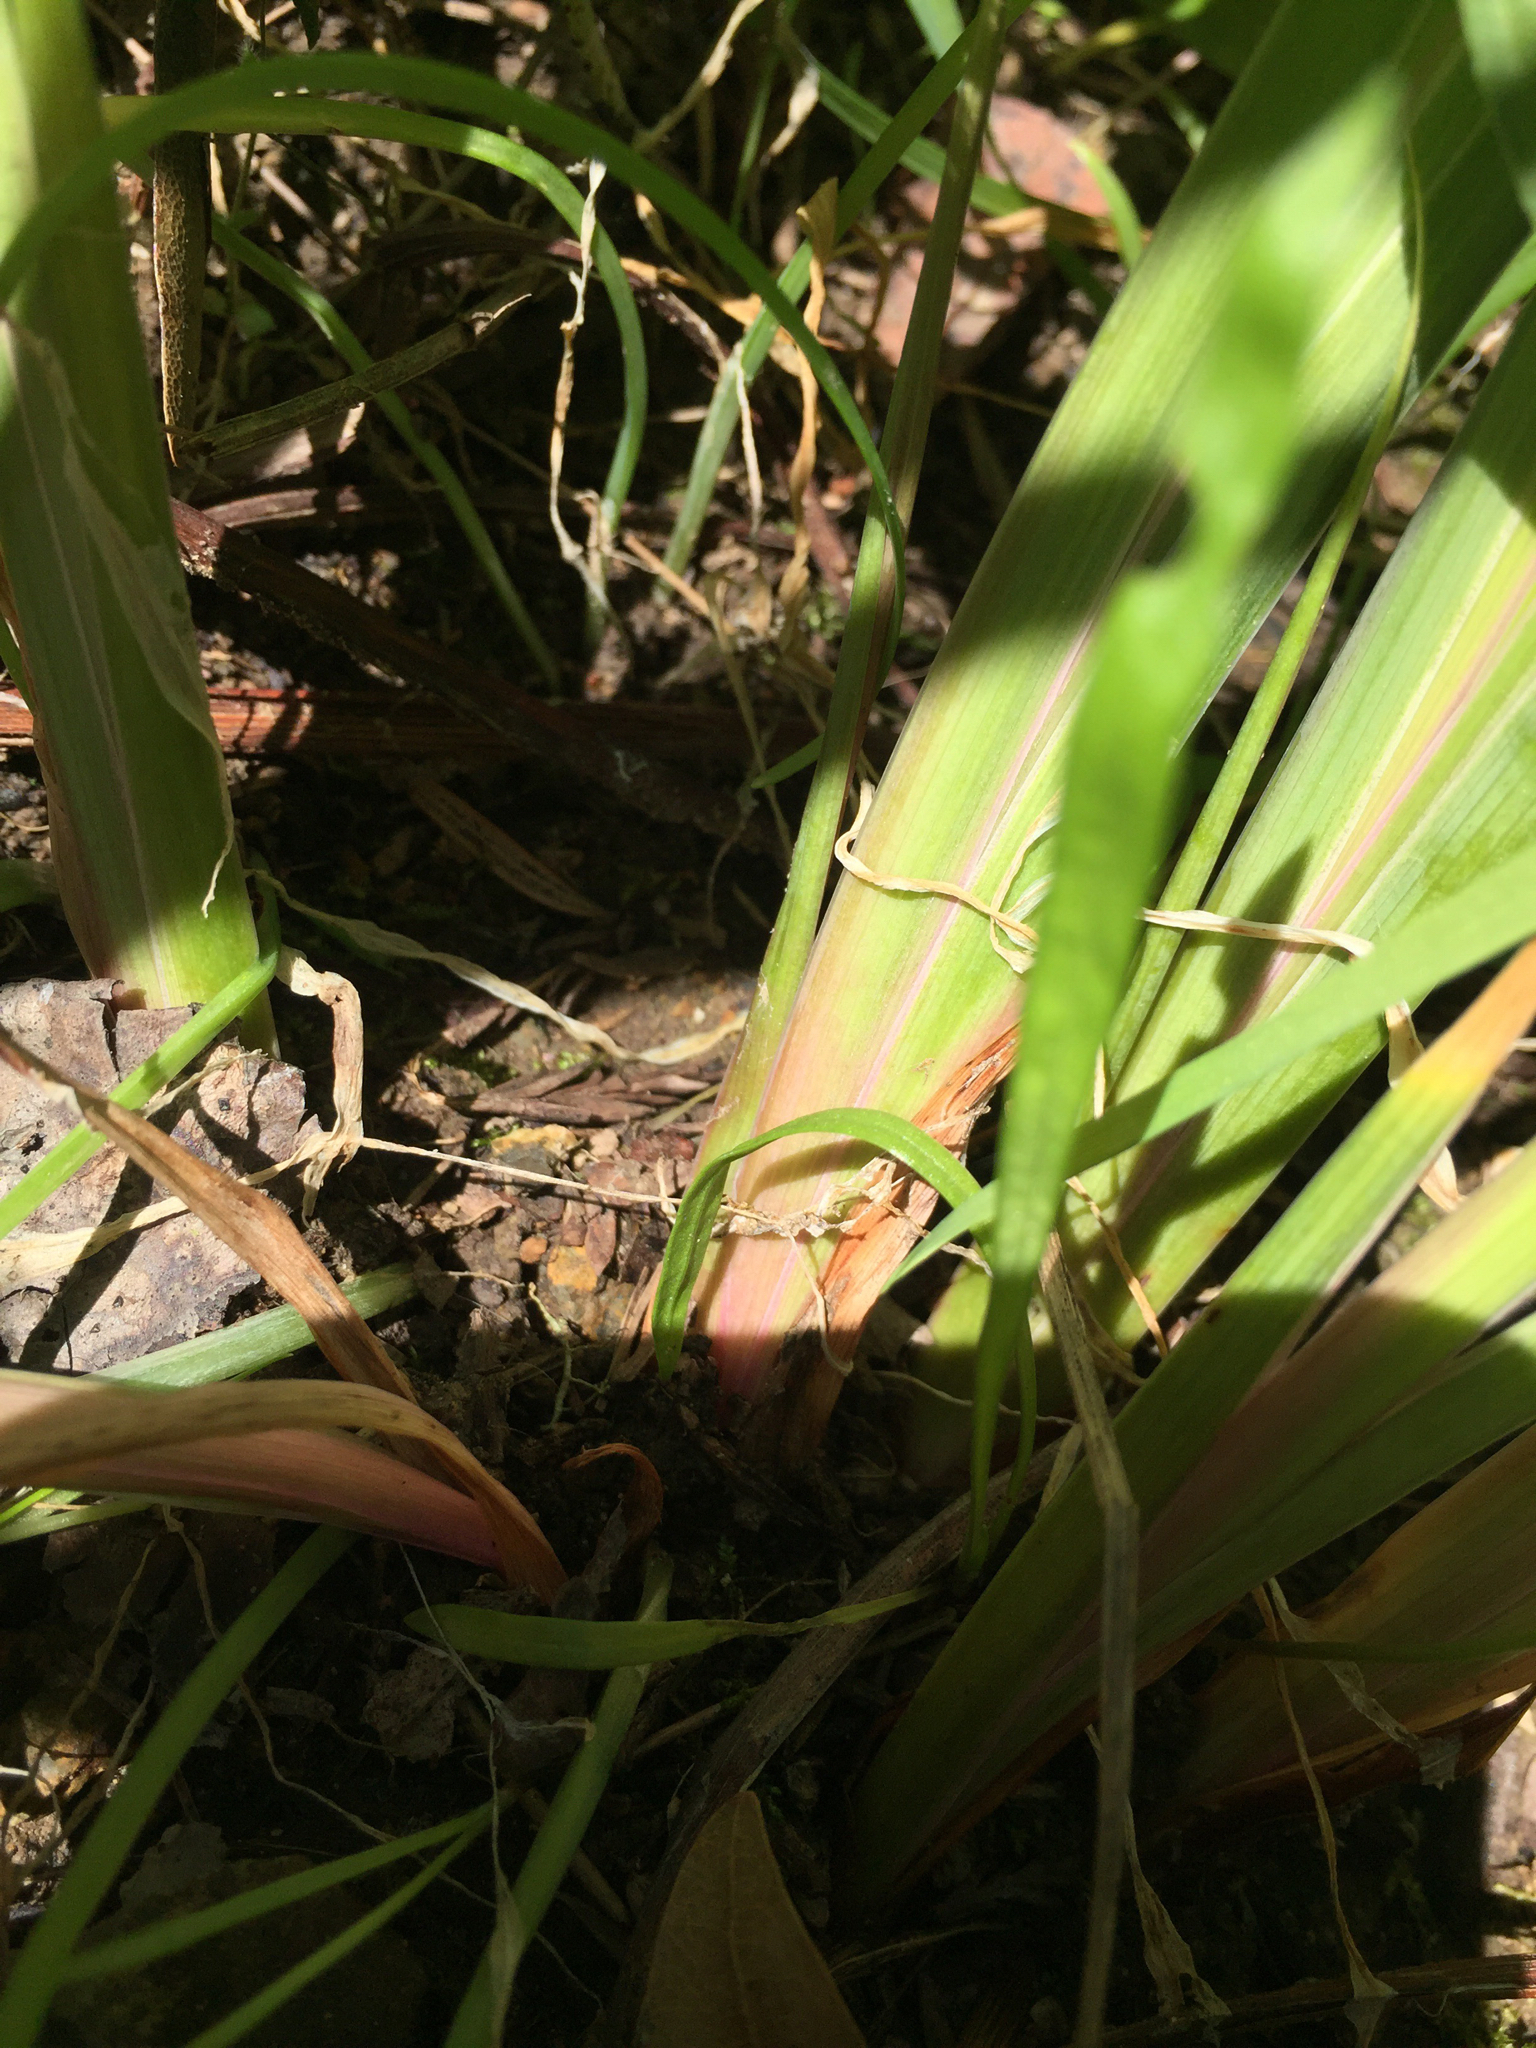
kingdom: Plantae
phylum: Tracheophyta
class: Liliopsida
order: Asparagales
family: Iridaceae
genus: Iris
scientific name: Iris douglasiana
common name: Marin iris
